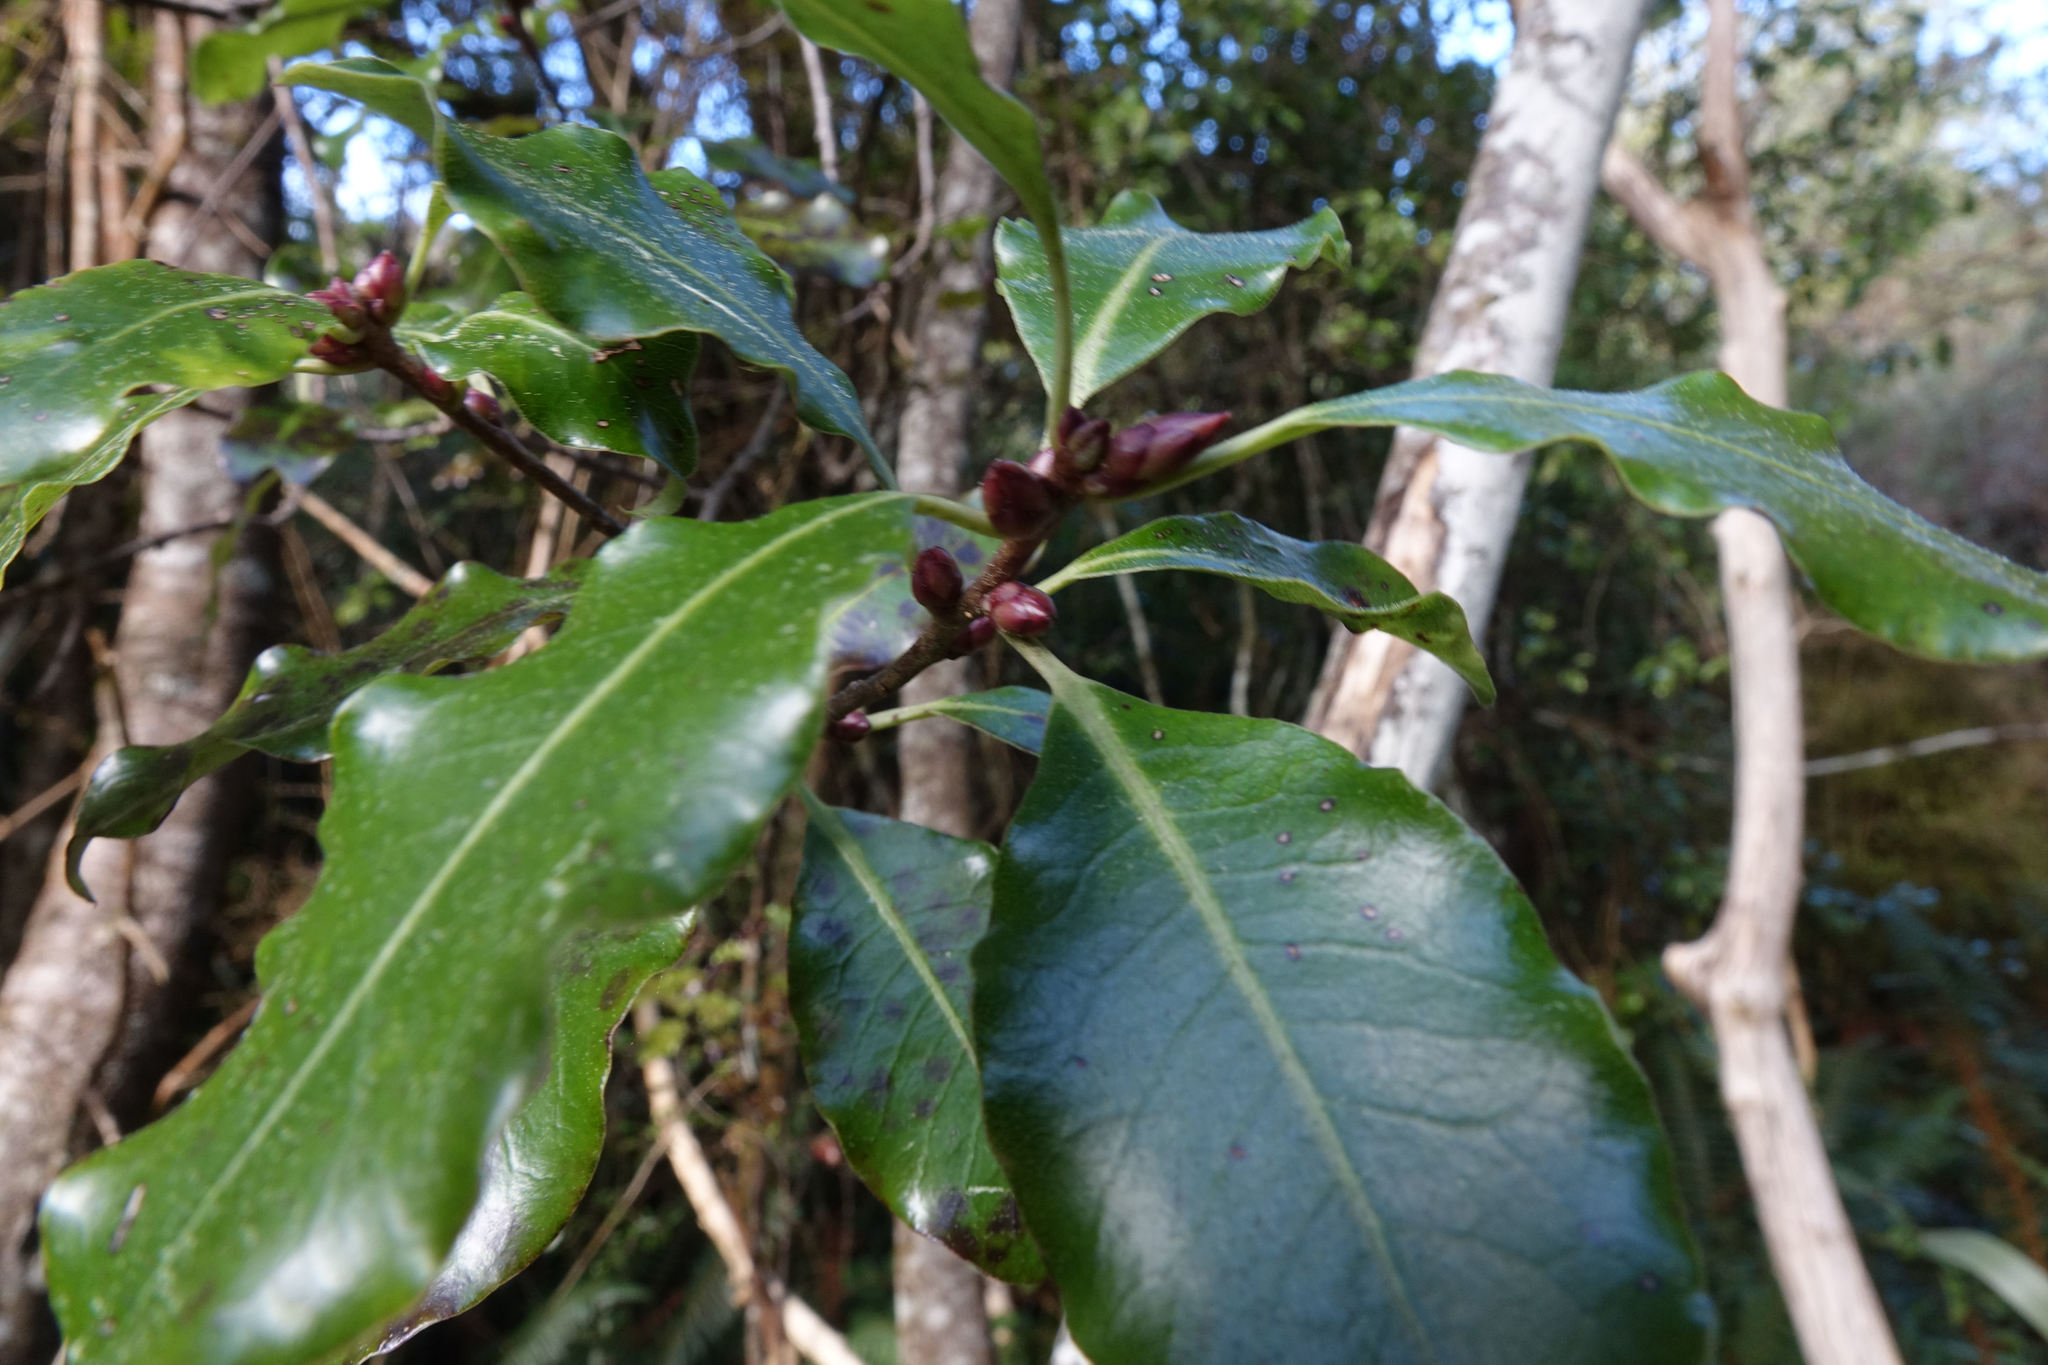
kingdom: Plantae
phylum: Tracheophyta
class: Magnoliopsida
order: Apiales
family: Pittosporaceae
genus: Pittosporum
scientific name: Pittosporum tenuifolium
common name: Kohuhu
